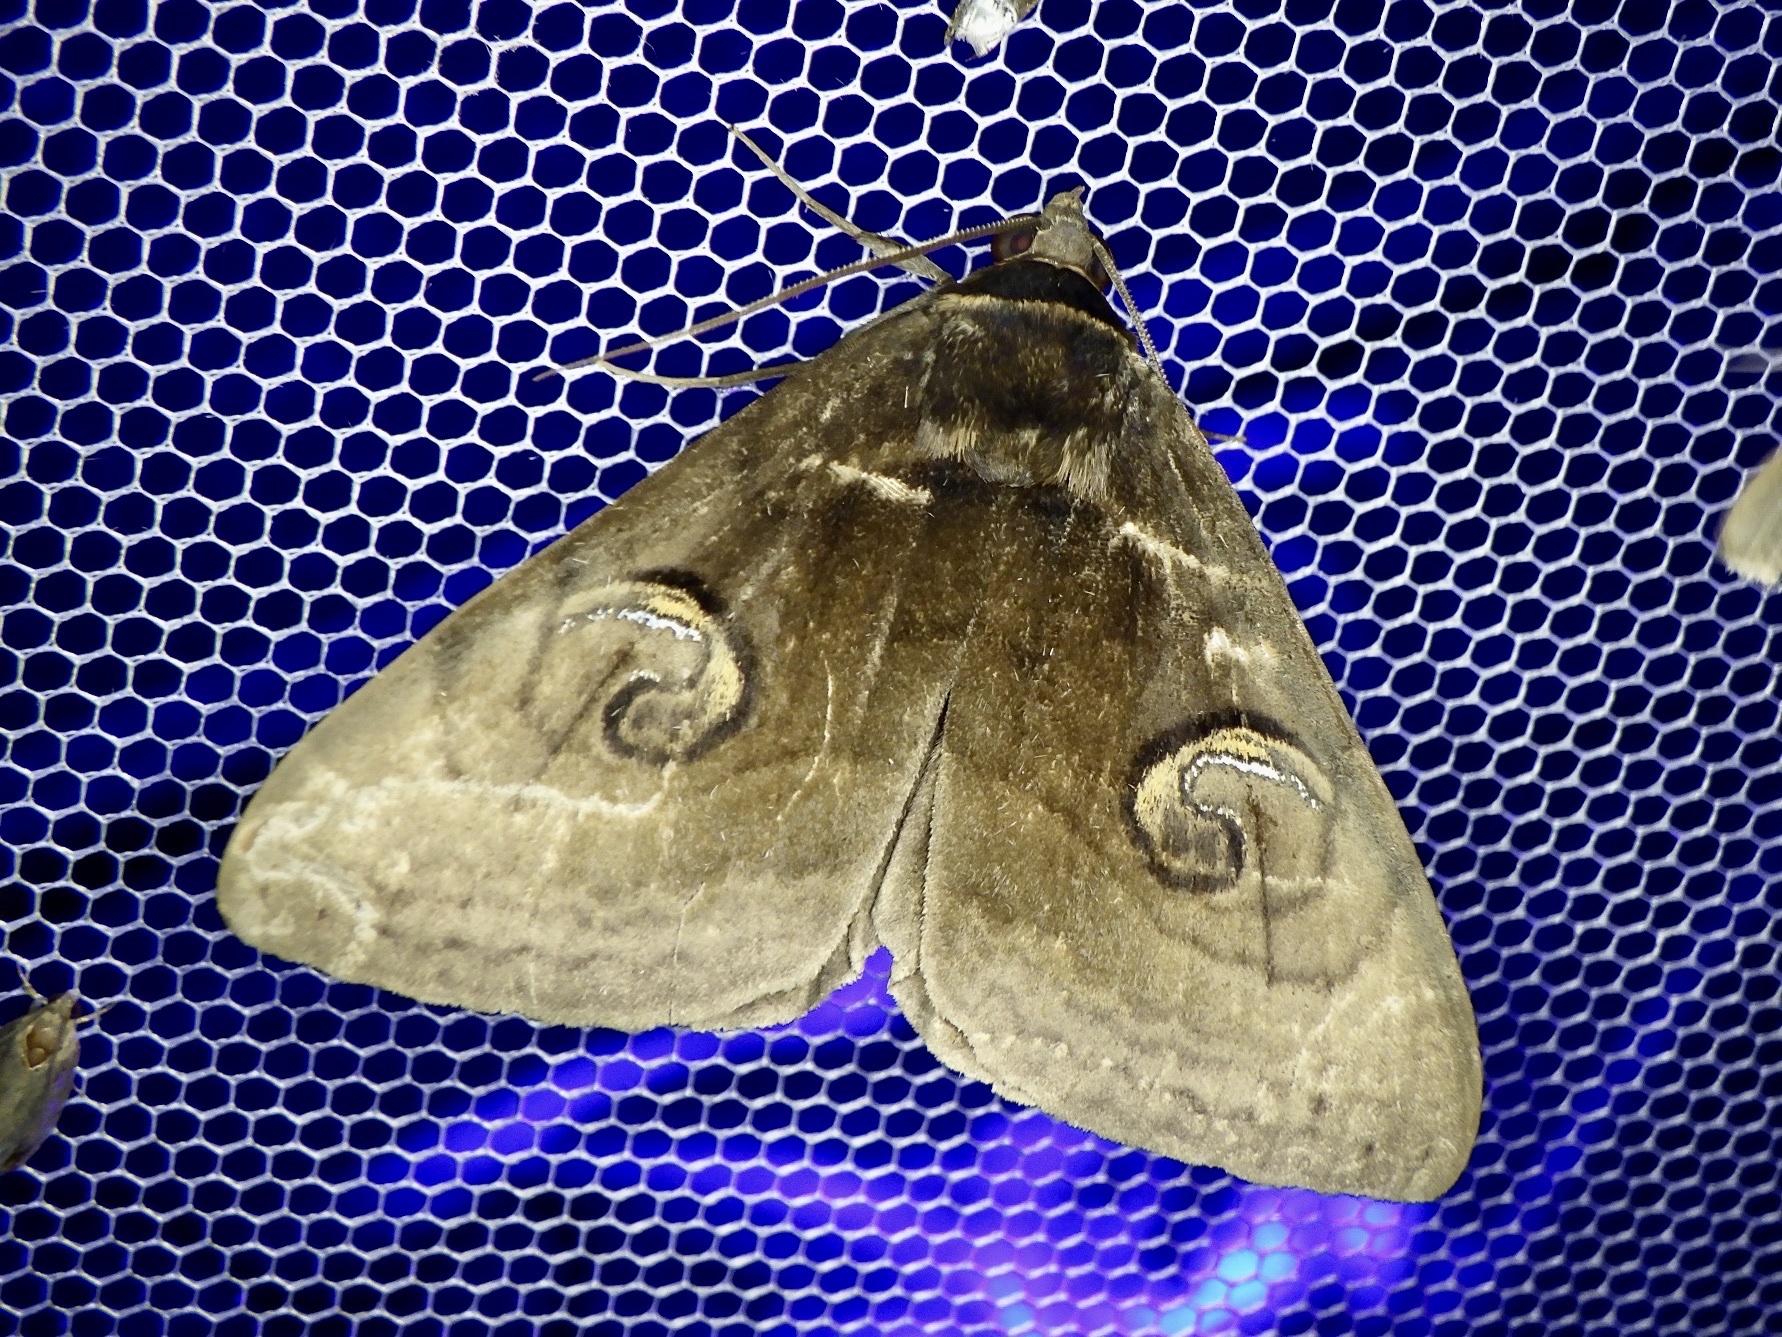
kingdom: Animalia
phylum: Arthropoda
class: Insecta
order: Lepidoptera
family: Erebidae
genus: Spirama
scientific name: Spirama helicina
